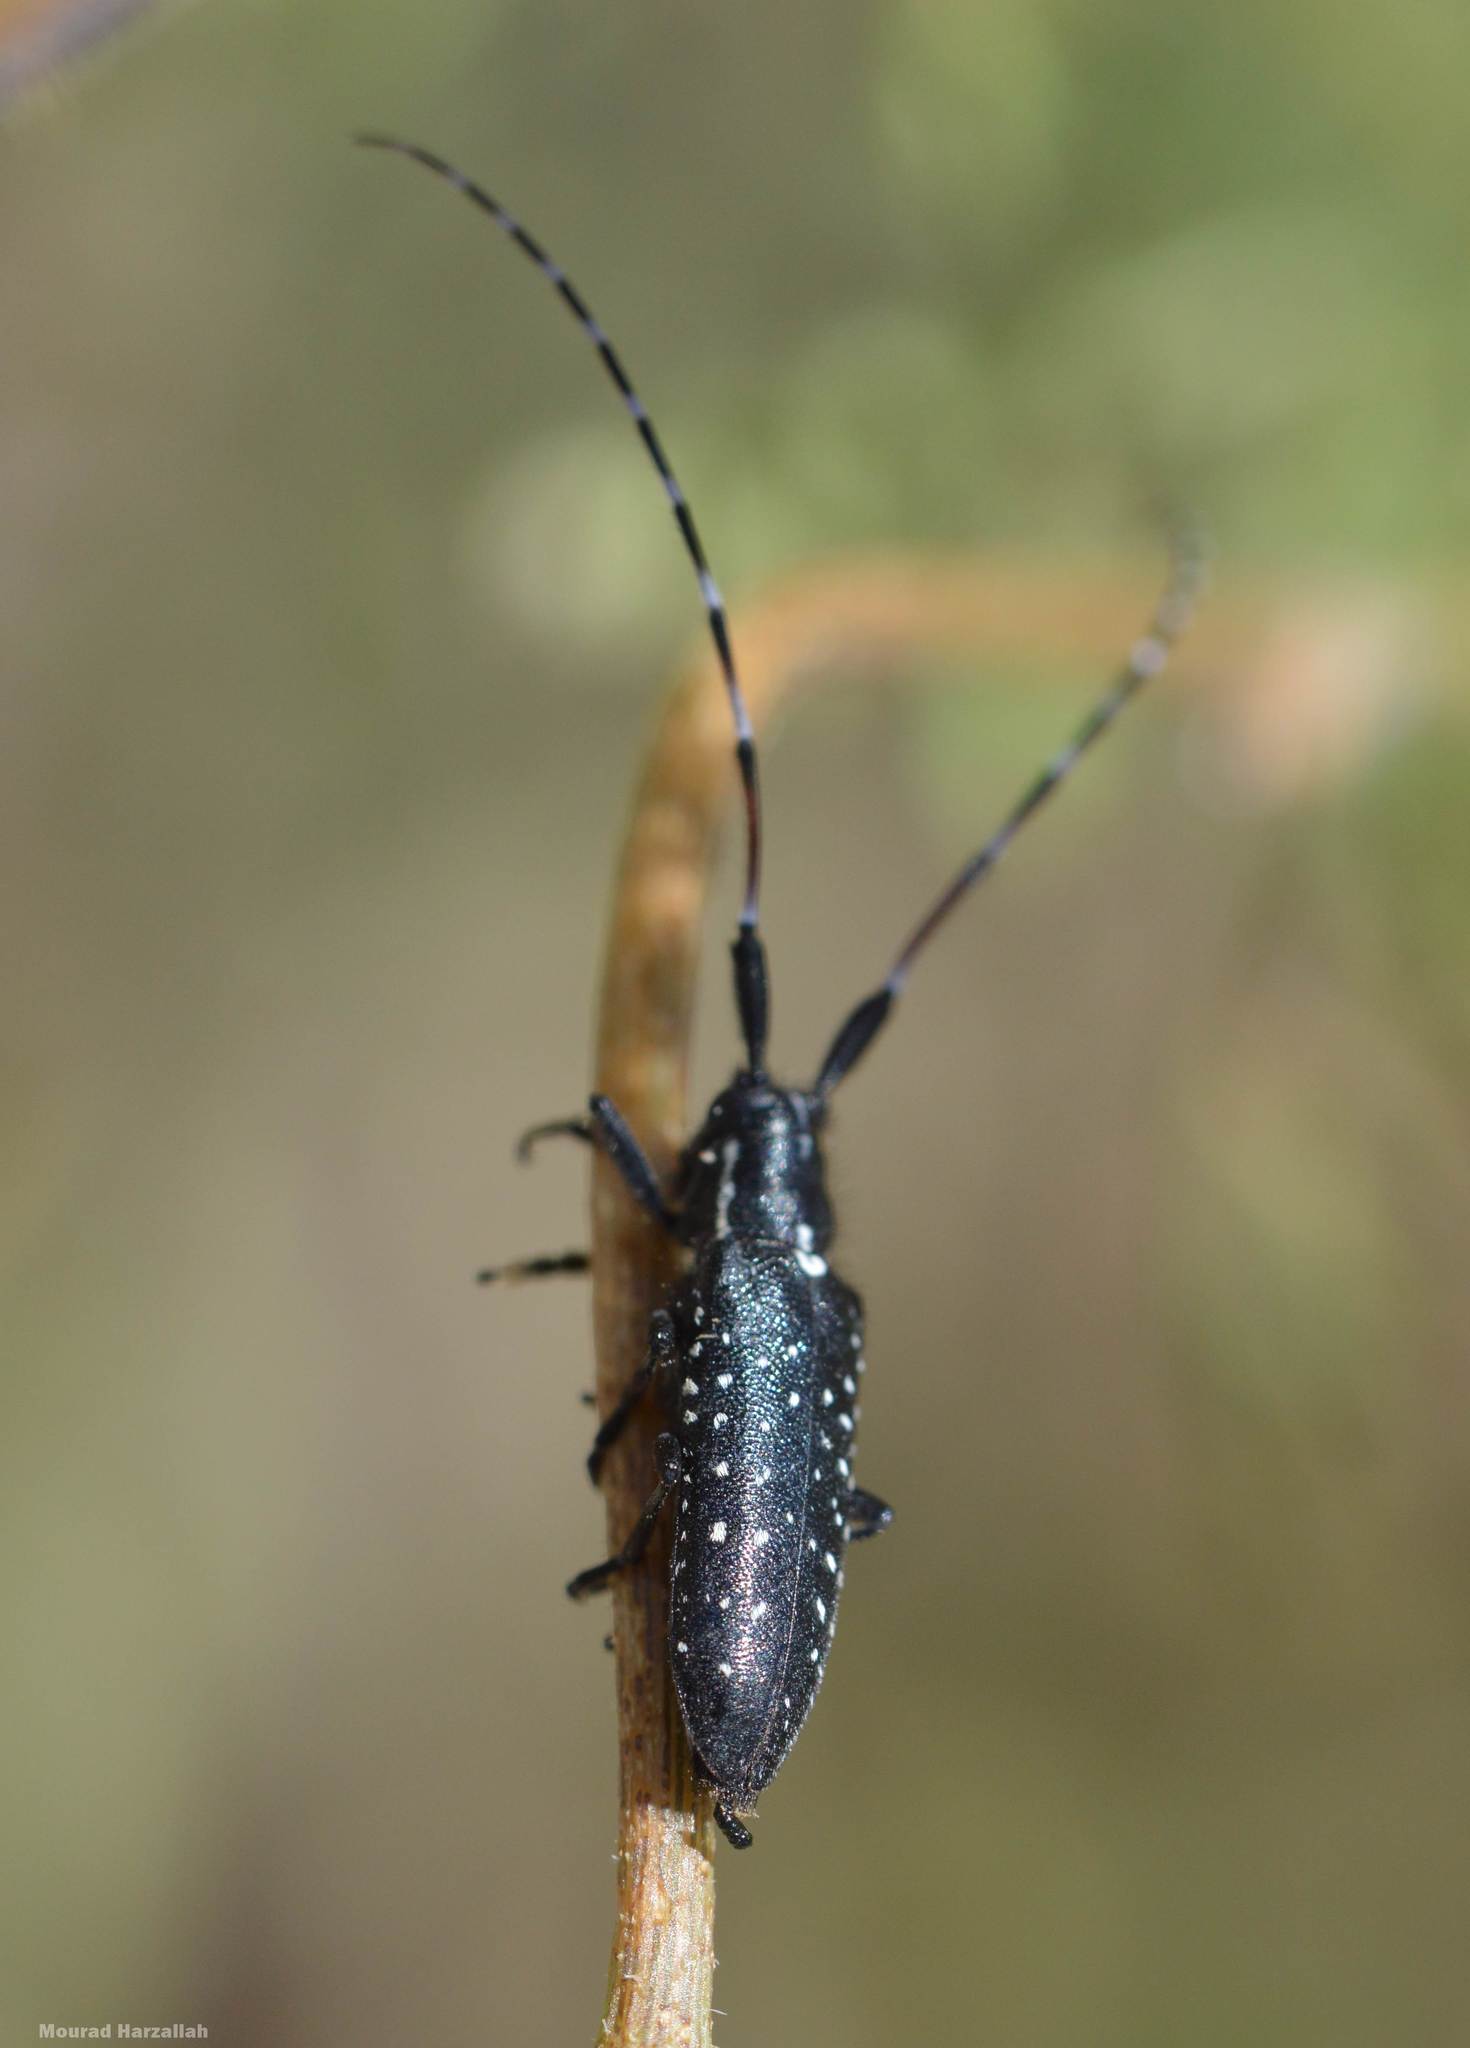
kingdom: Animalia
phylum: Arthropoda
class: Insecta
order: Coleoptera
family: Cerambycidae
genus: Agapanthia
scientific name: Agapanthia irrorata
